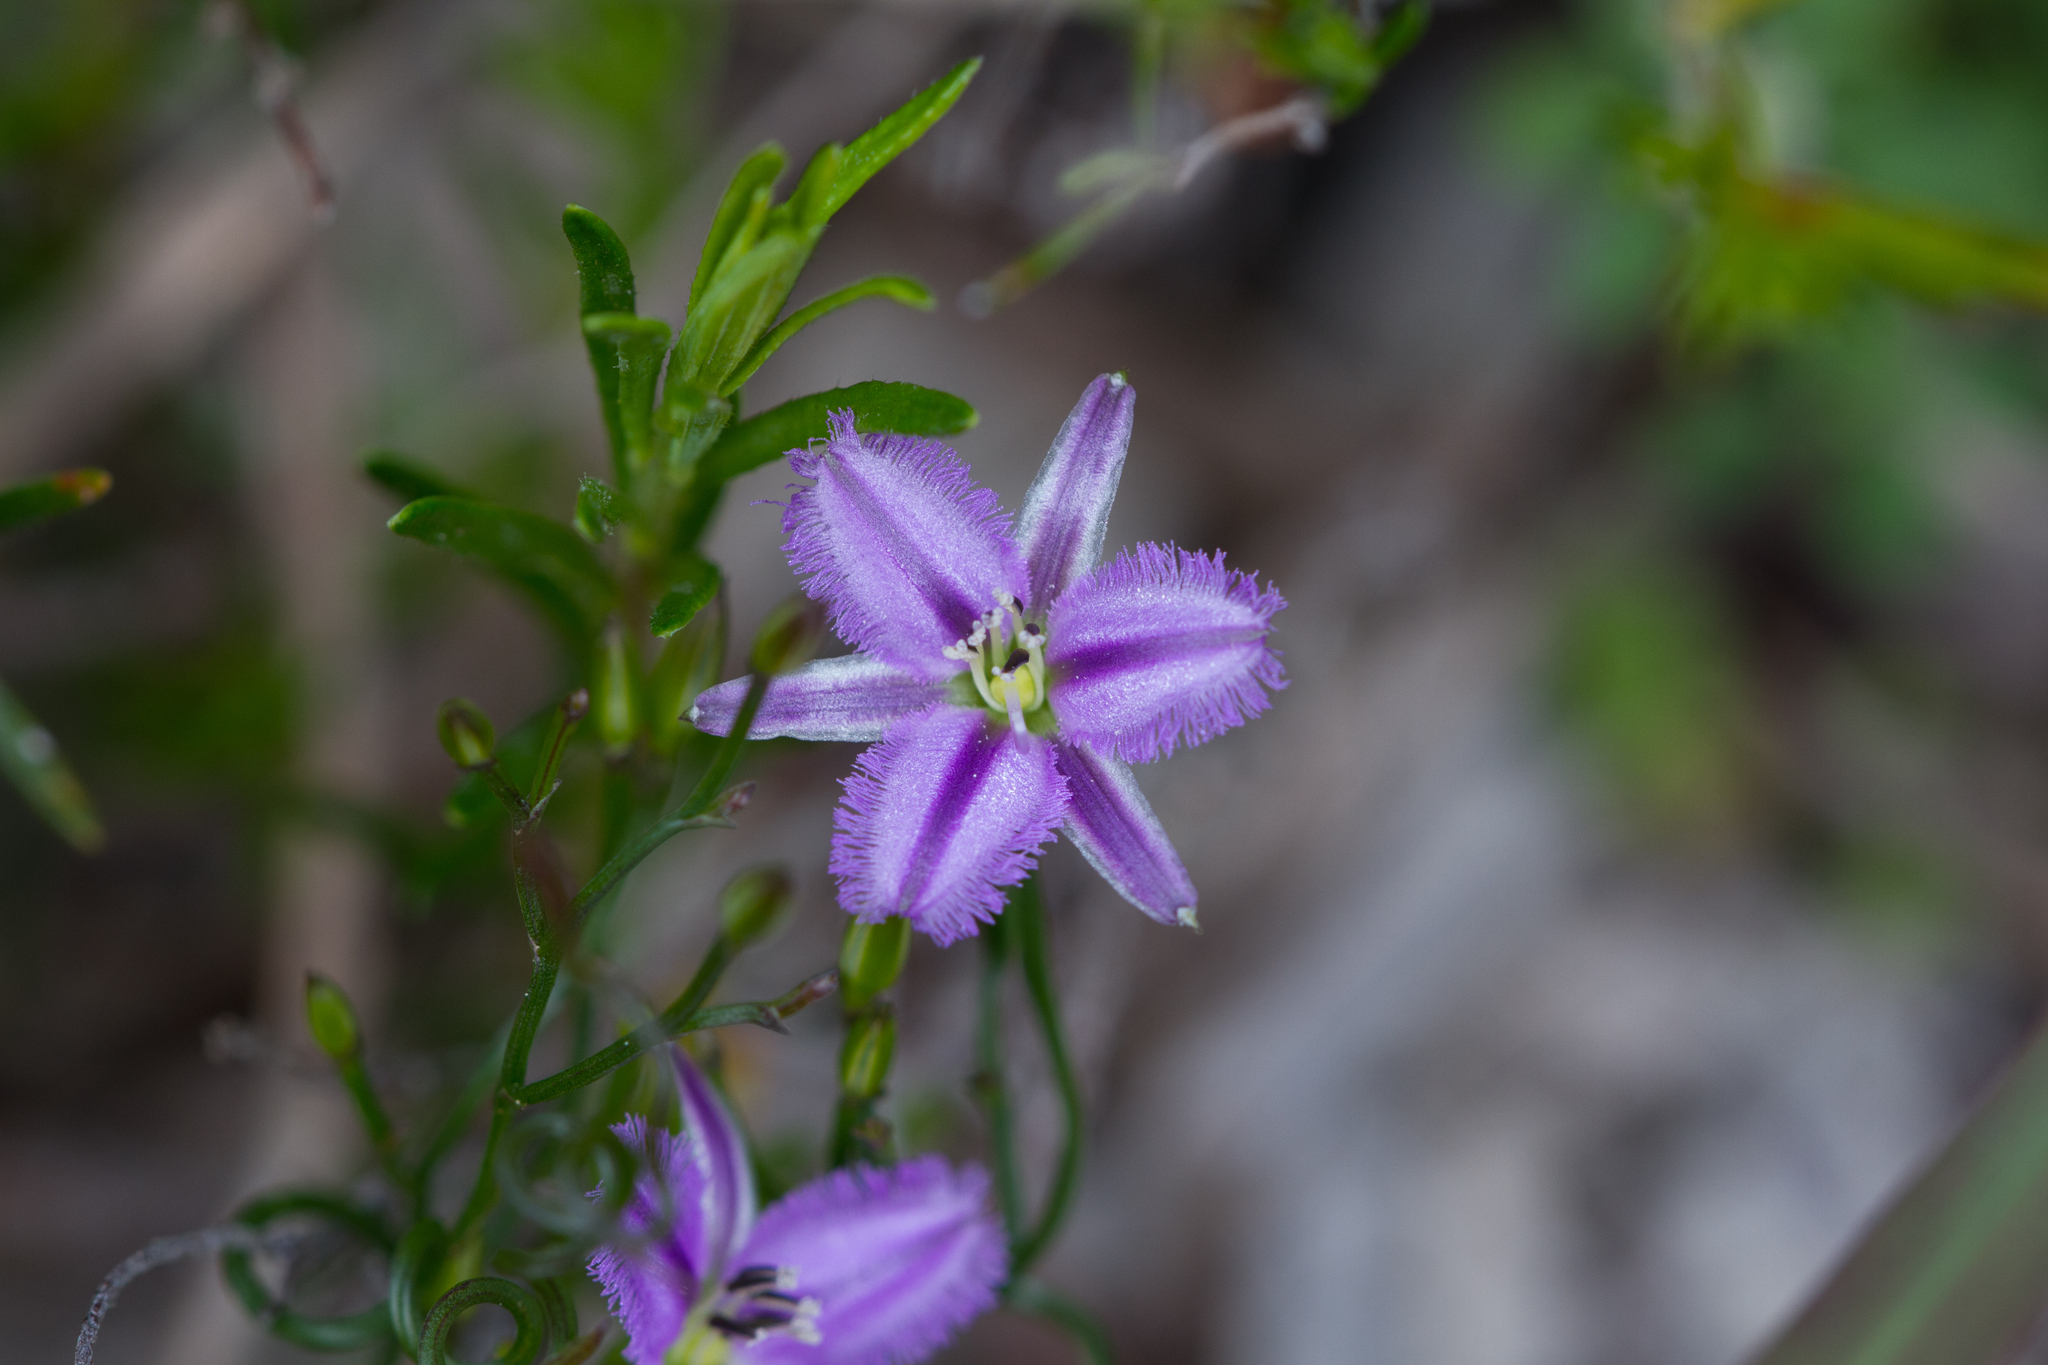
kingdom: Plantae
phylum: Tracheophyta
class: Liliopsida
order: Asparagales
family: Asparagaceae
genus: Thysanotus
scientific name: Thysanotus patersonii
